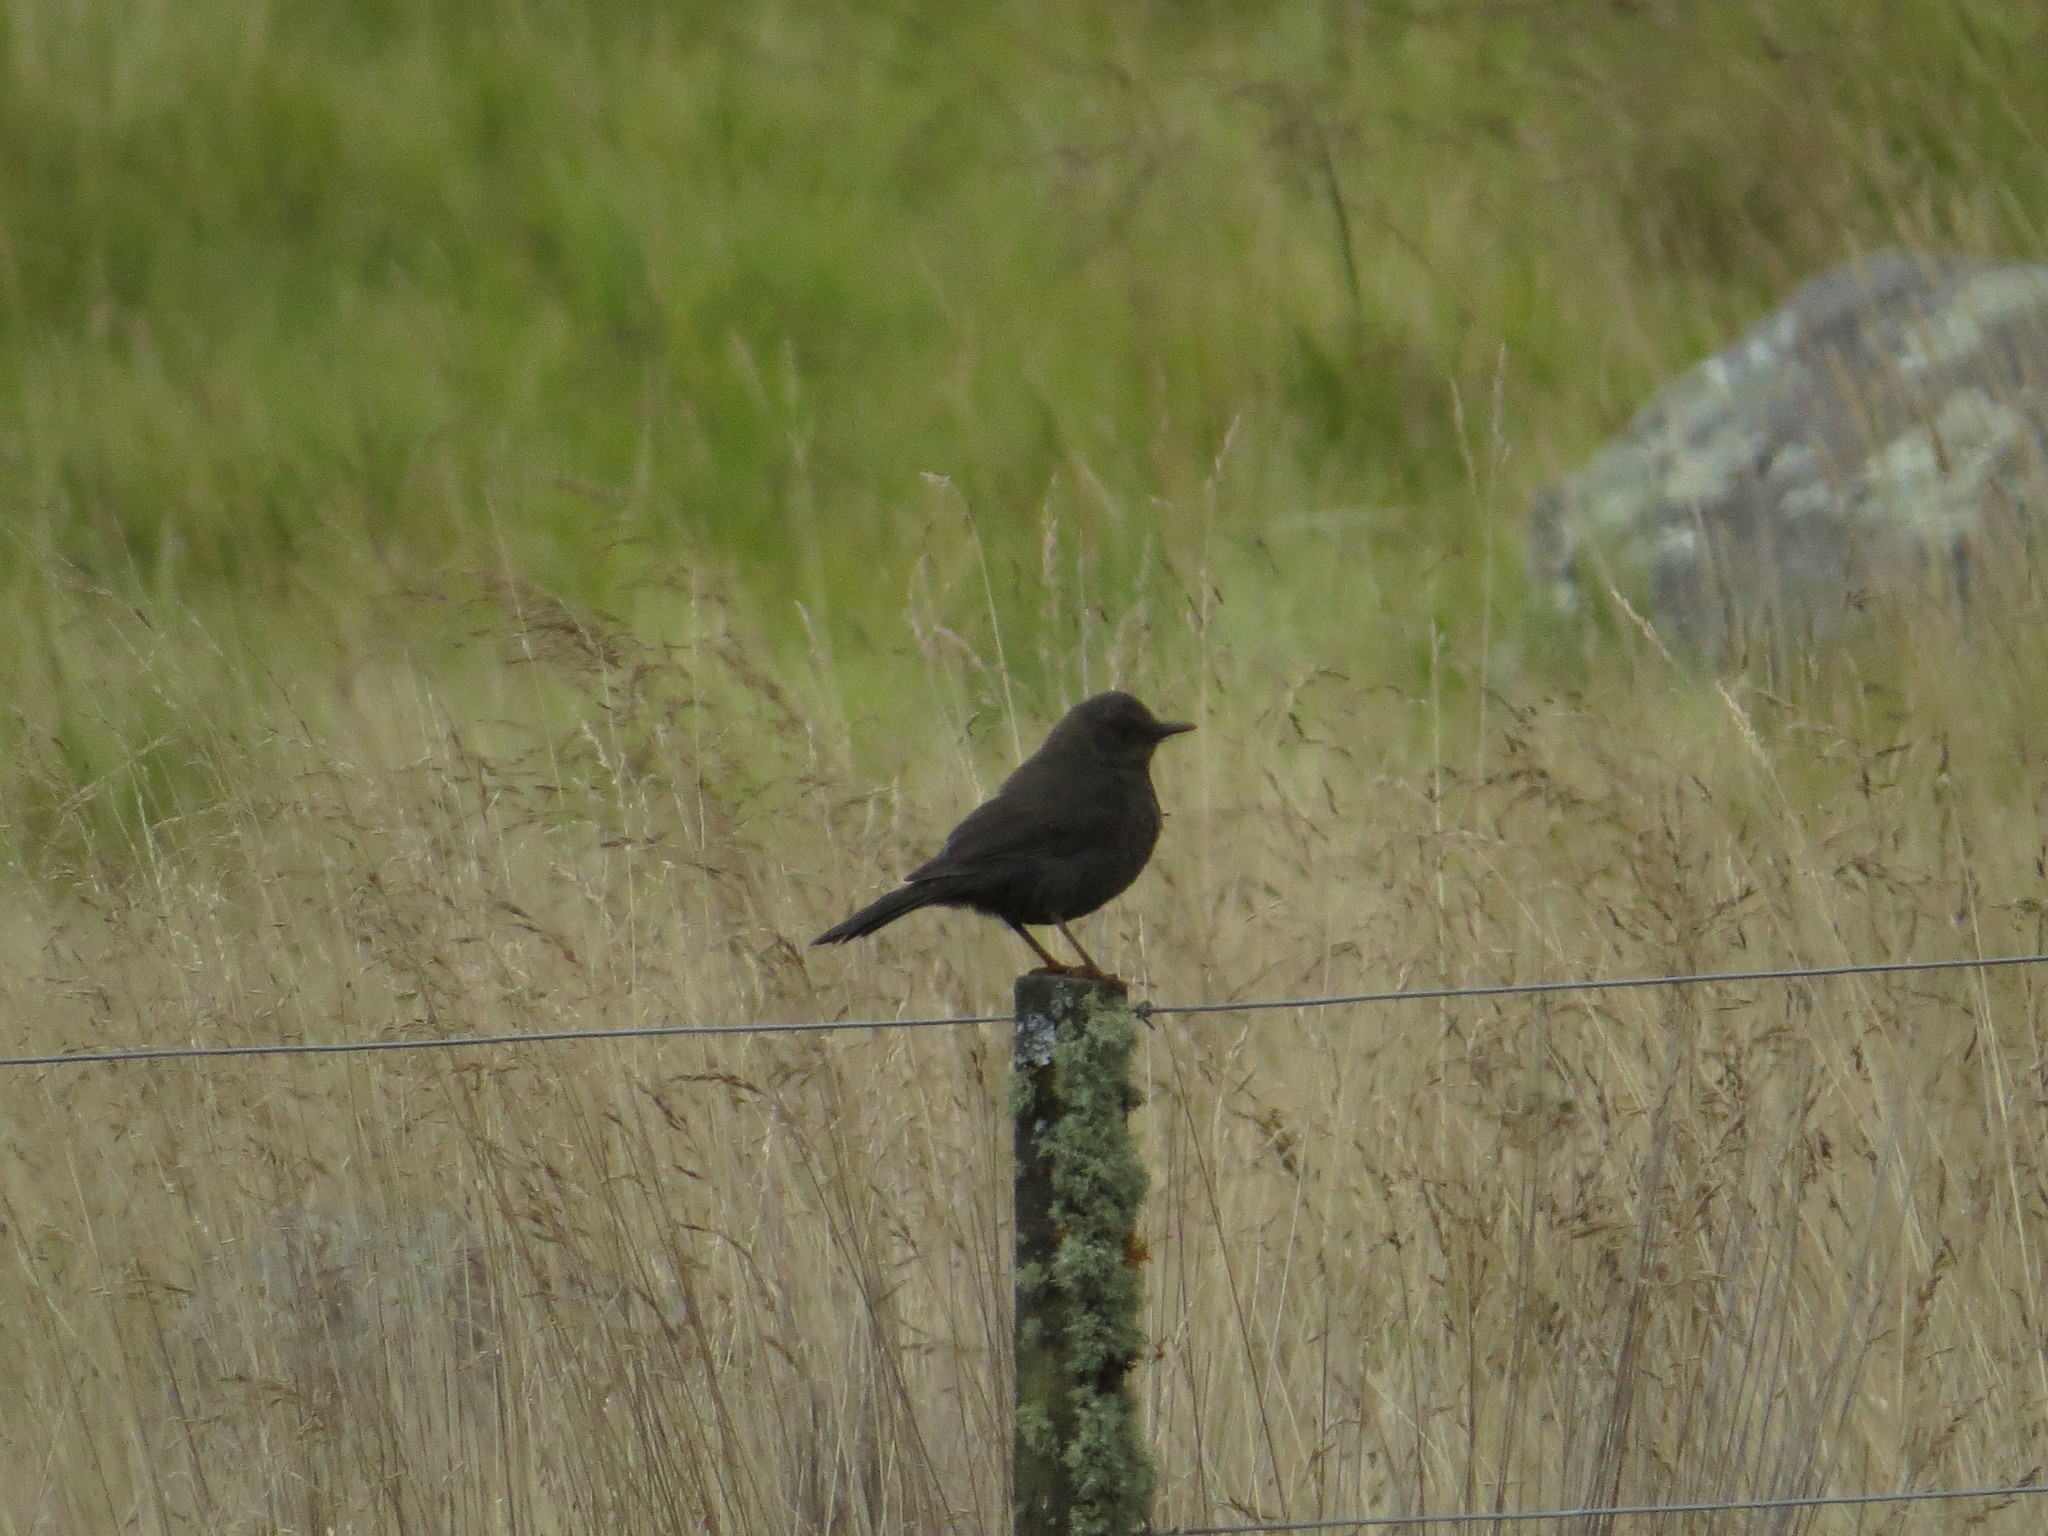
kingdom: Animalia
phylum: Chordata
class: Aves
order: Passeriformes
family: Turdidae
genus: Turdus
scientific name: Turdus chiguanco
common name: Chiguanco thrush
